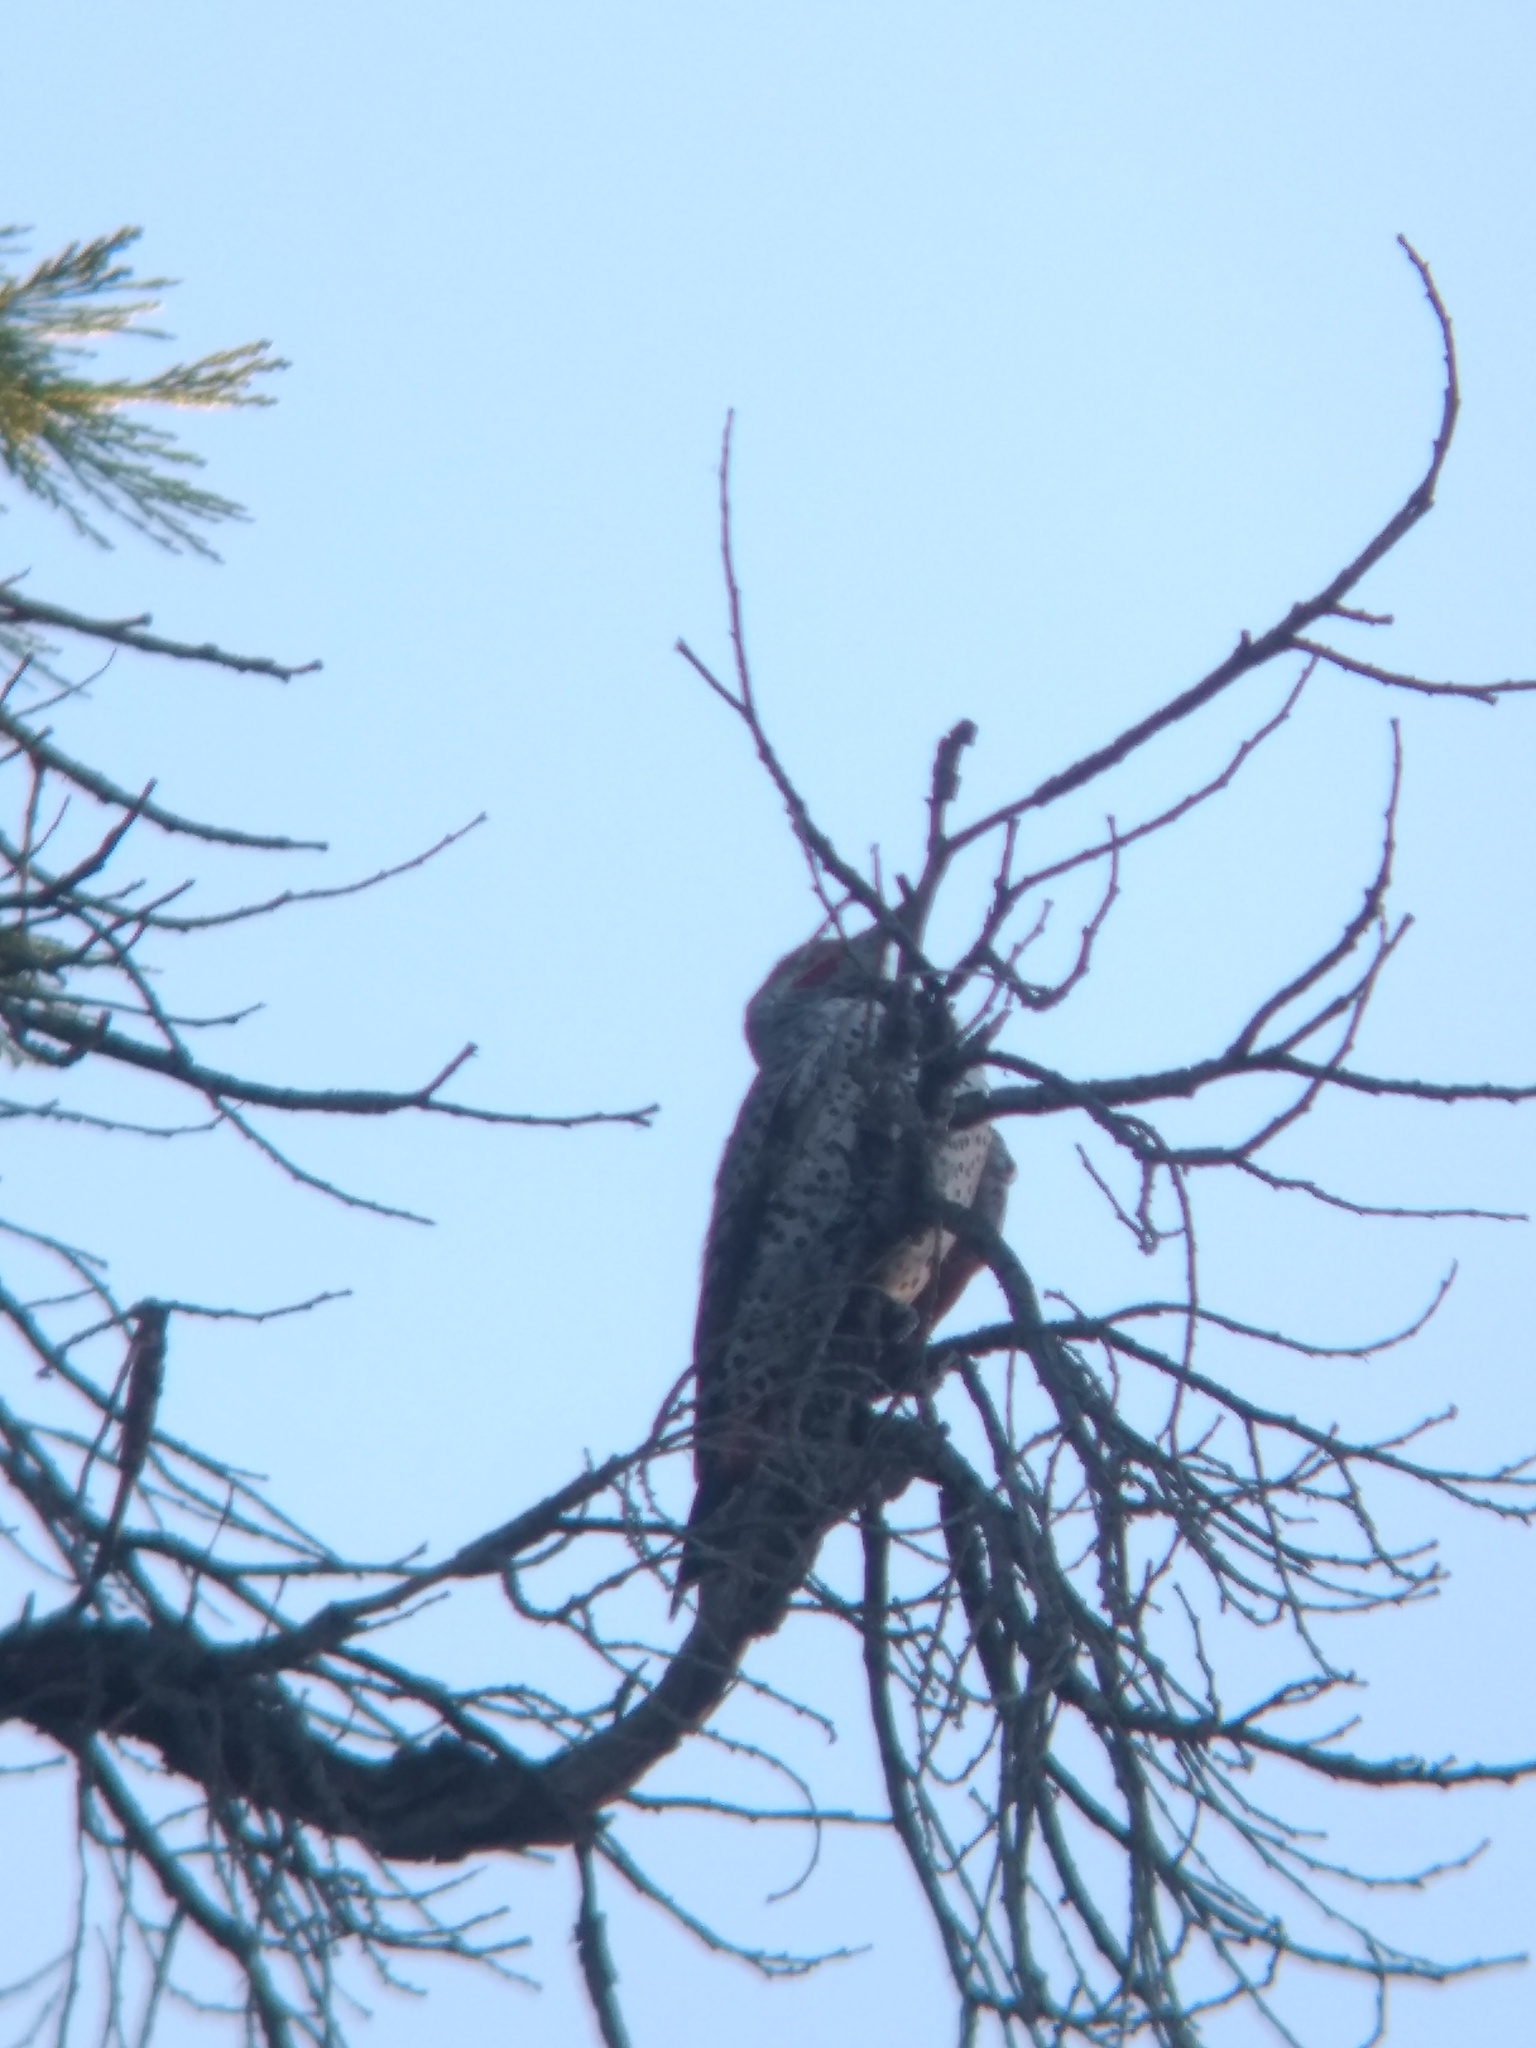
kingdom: Animalia
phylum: Chordata
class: Aves
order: Piciformes
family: Picidae
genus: Colaptes
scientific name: Colaptes auratus
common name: Northern flicker
